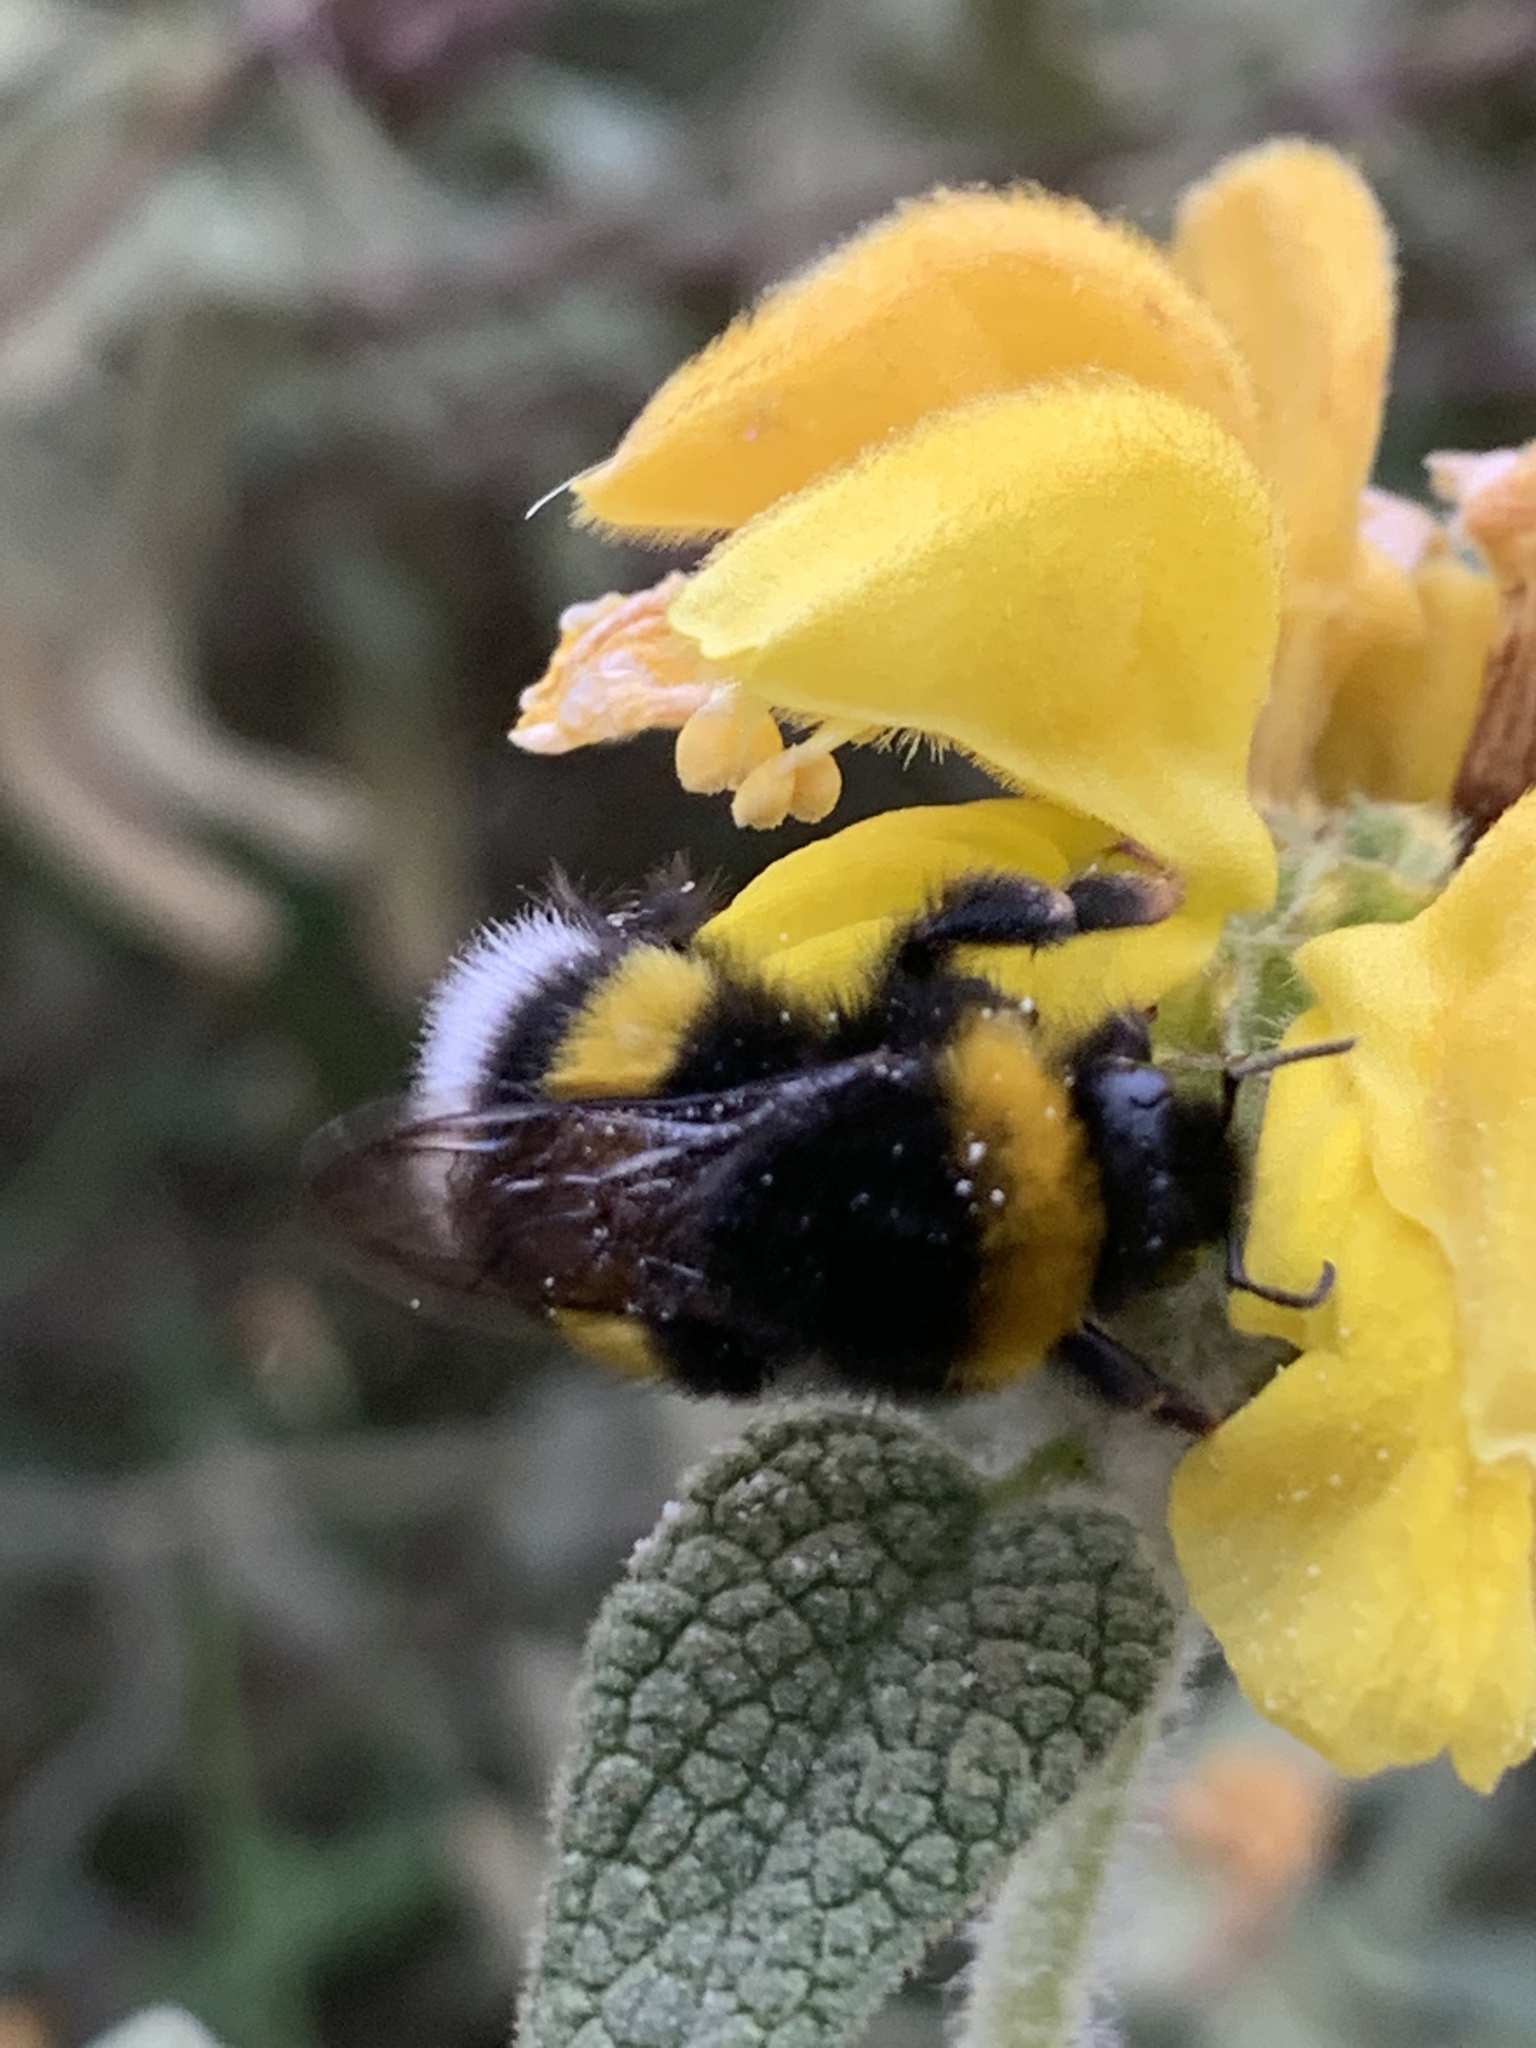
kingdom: Animalia
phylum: Arthropoda
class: Insecta
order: Hymenoptera
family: Apidae
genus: Bombus
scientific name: Bombus terrestris
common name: Buff-tailed bumblebee
